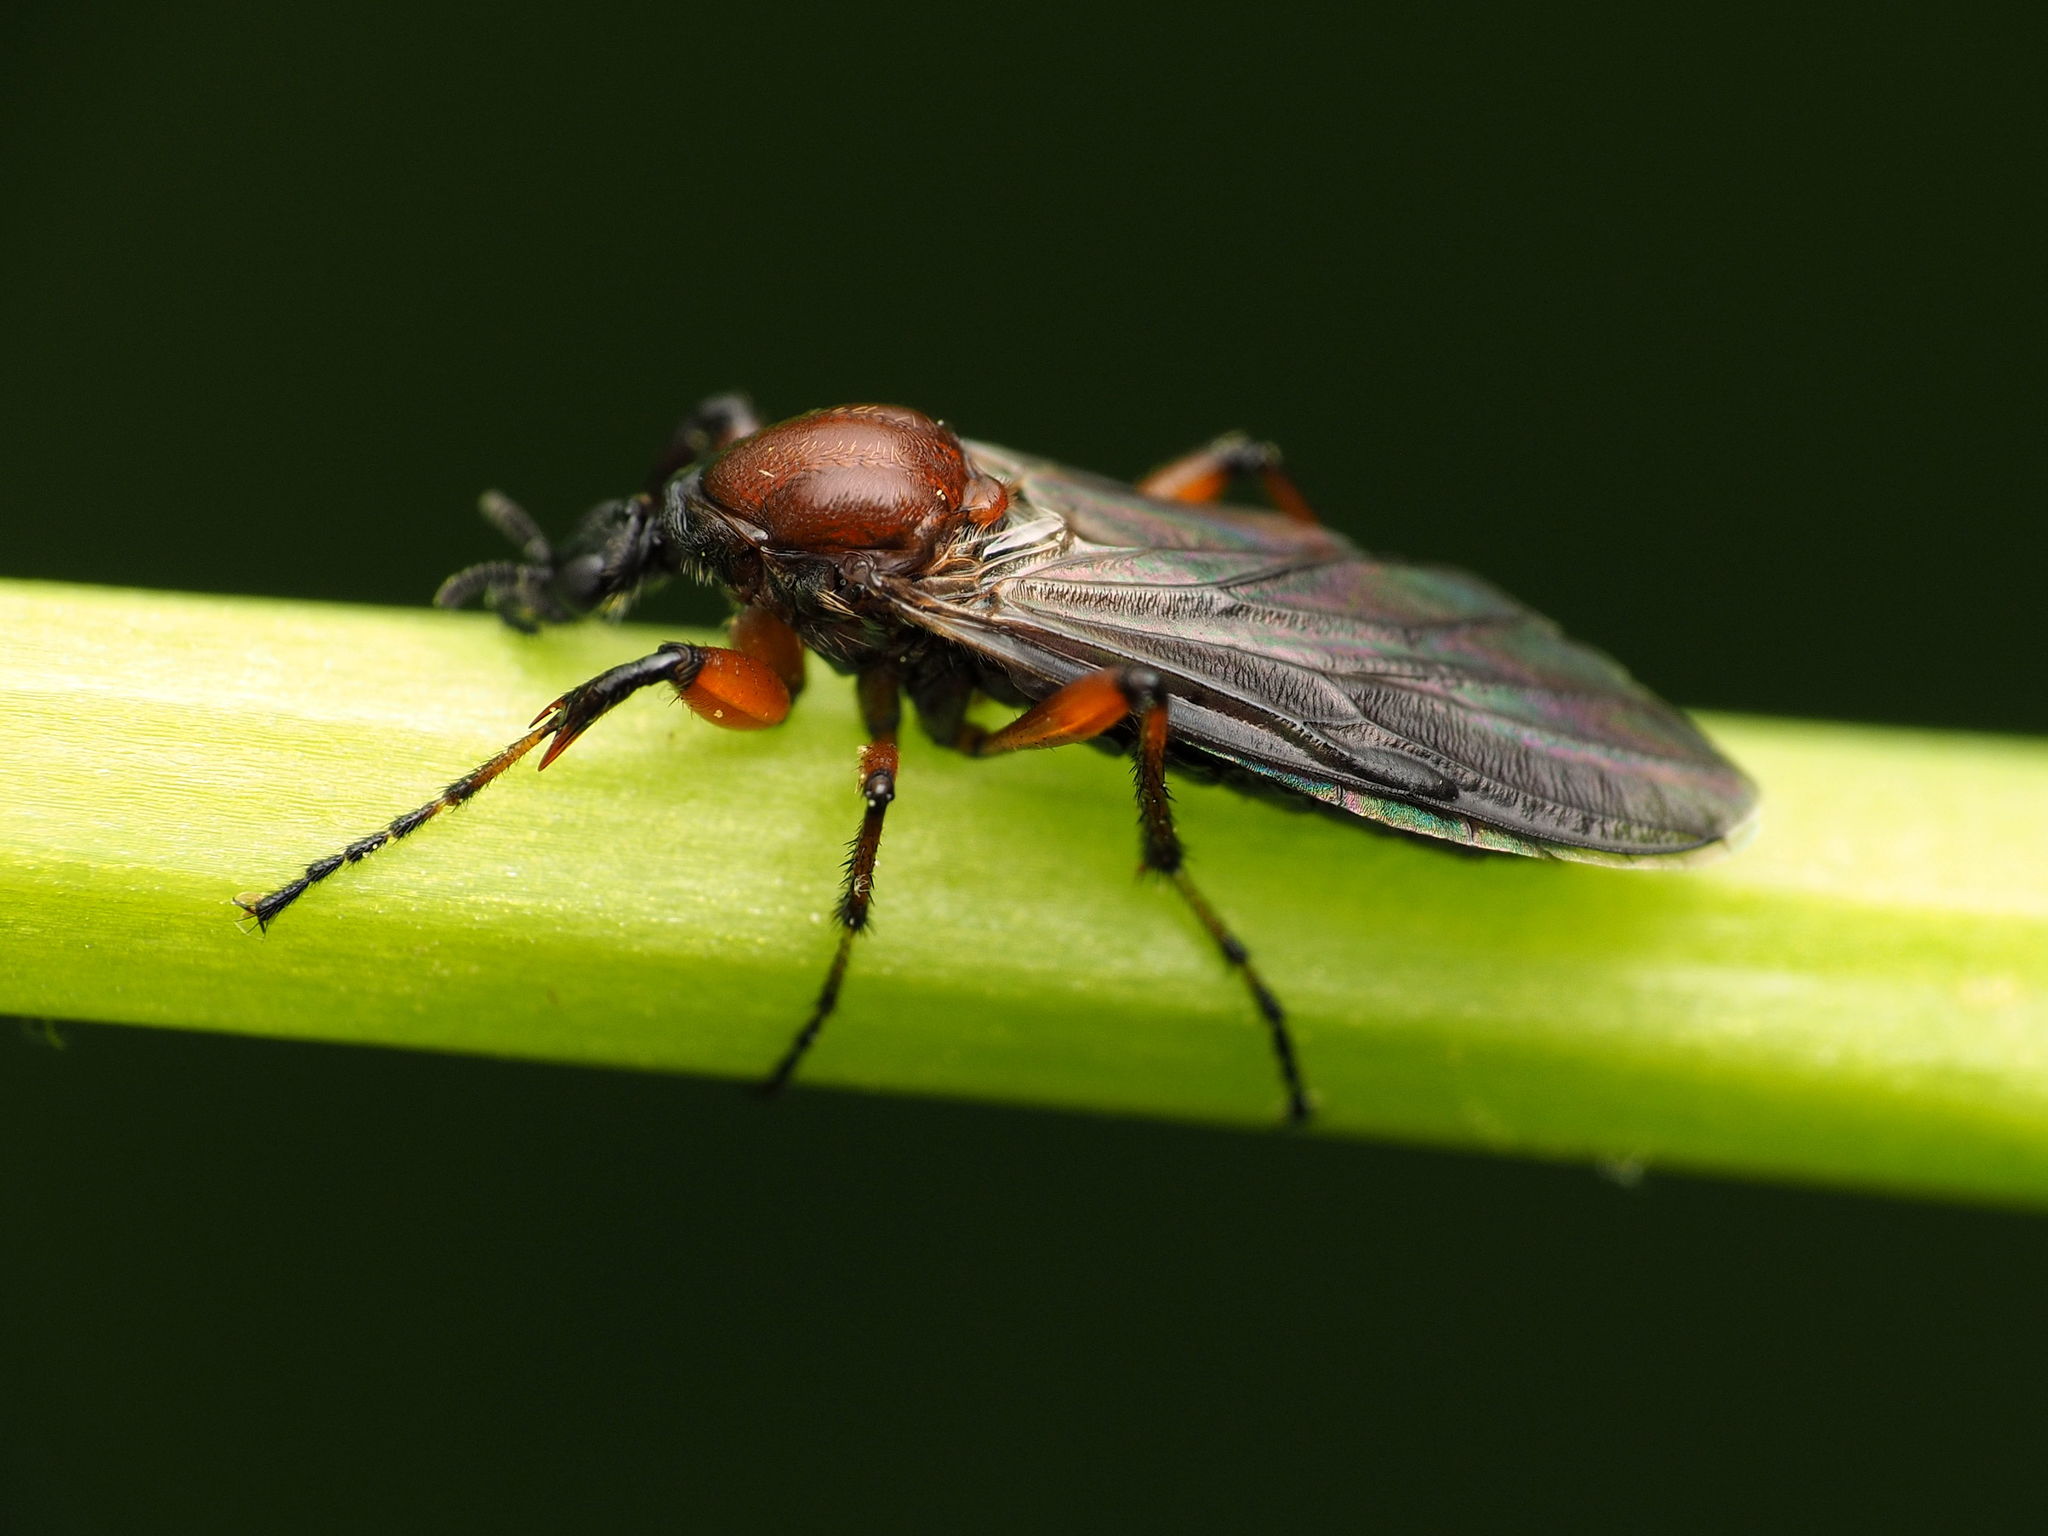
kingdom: Animalia
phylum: Arthropoda
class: Insecta
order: Diptera
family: Bibionidae
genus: Bibio
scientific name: Bibio articulatus
